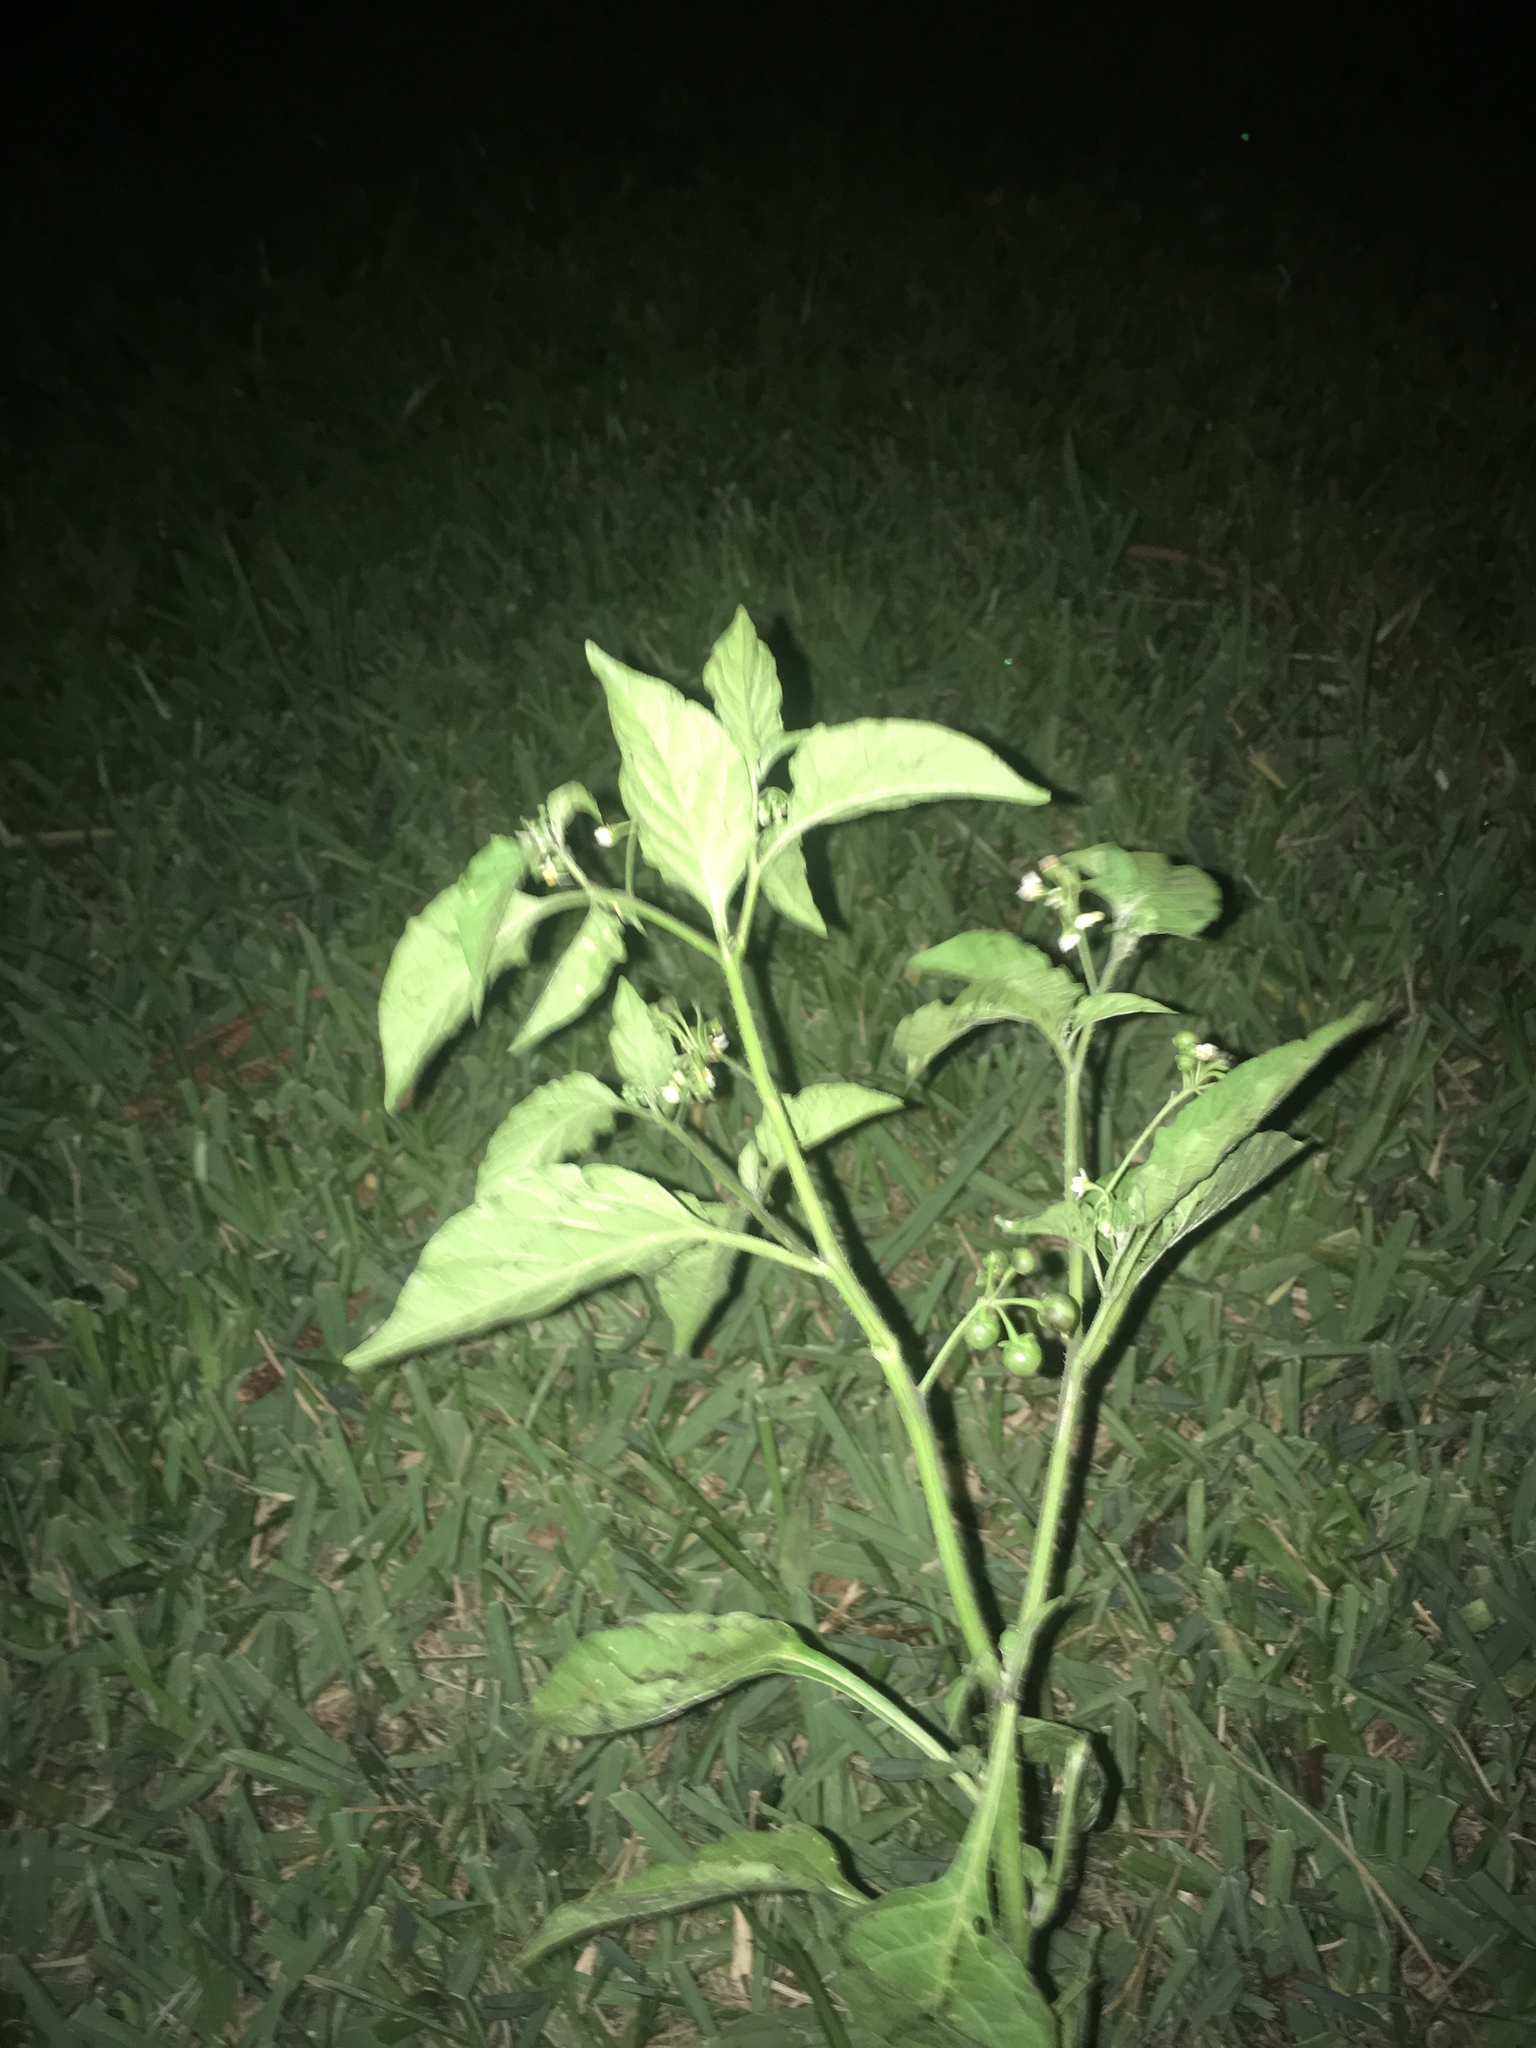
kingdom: Plantae
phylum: Tracheophyta
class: Magnoliopsida
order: Solanales
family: Solanaceae
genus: Solanum
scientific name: Solanum americanum
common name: American black nightshade
